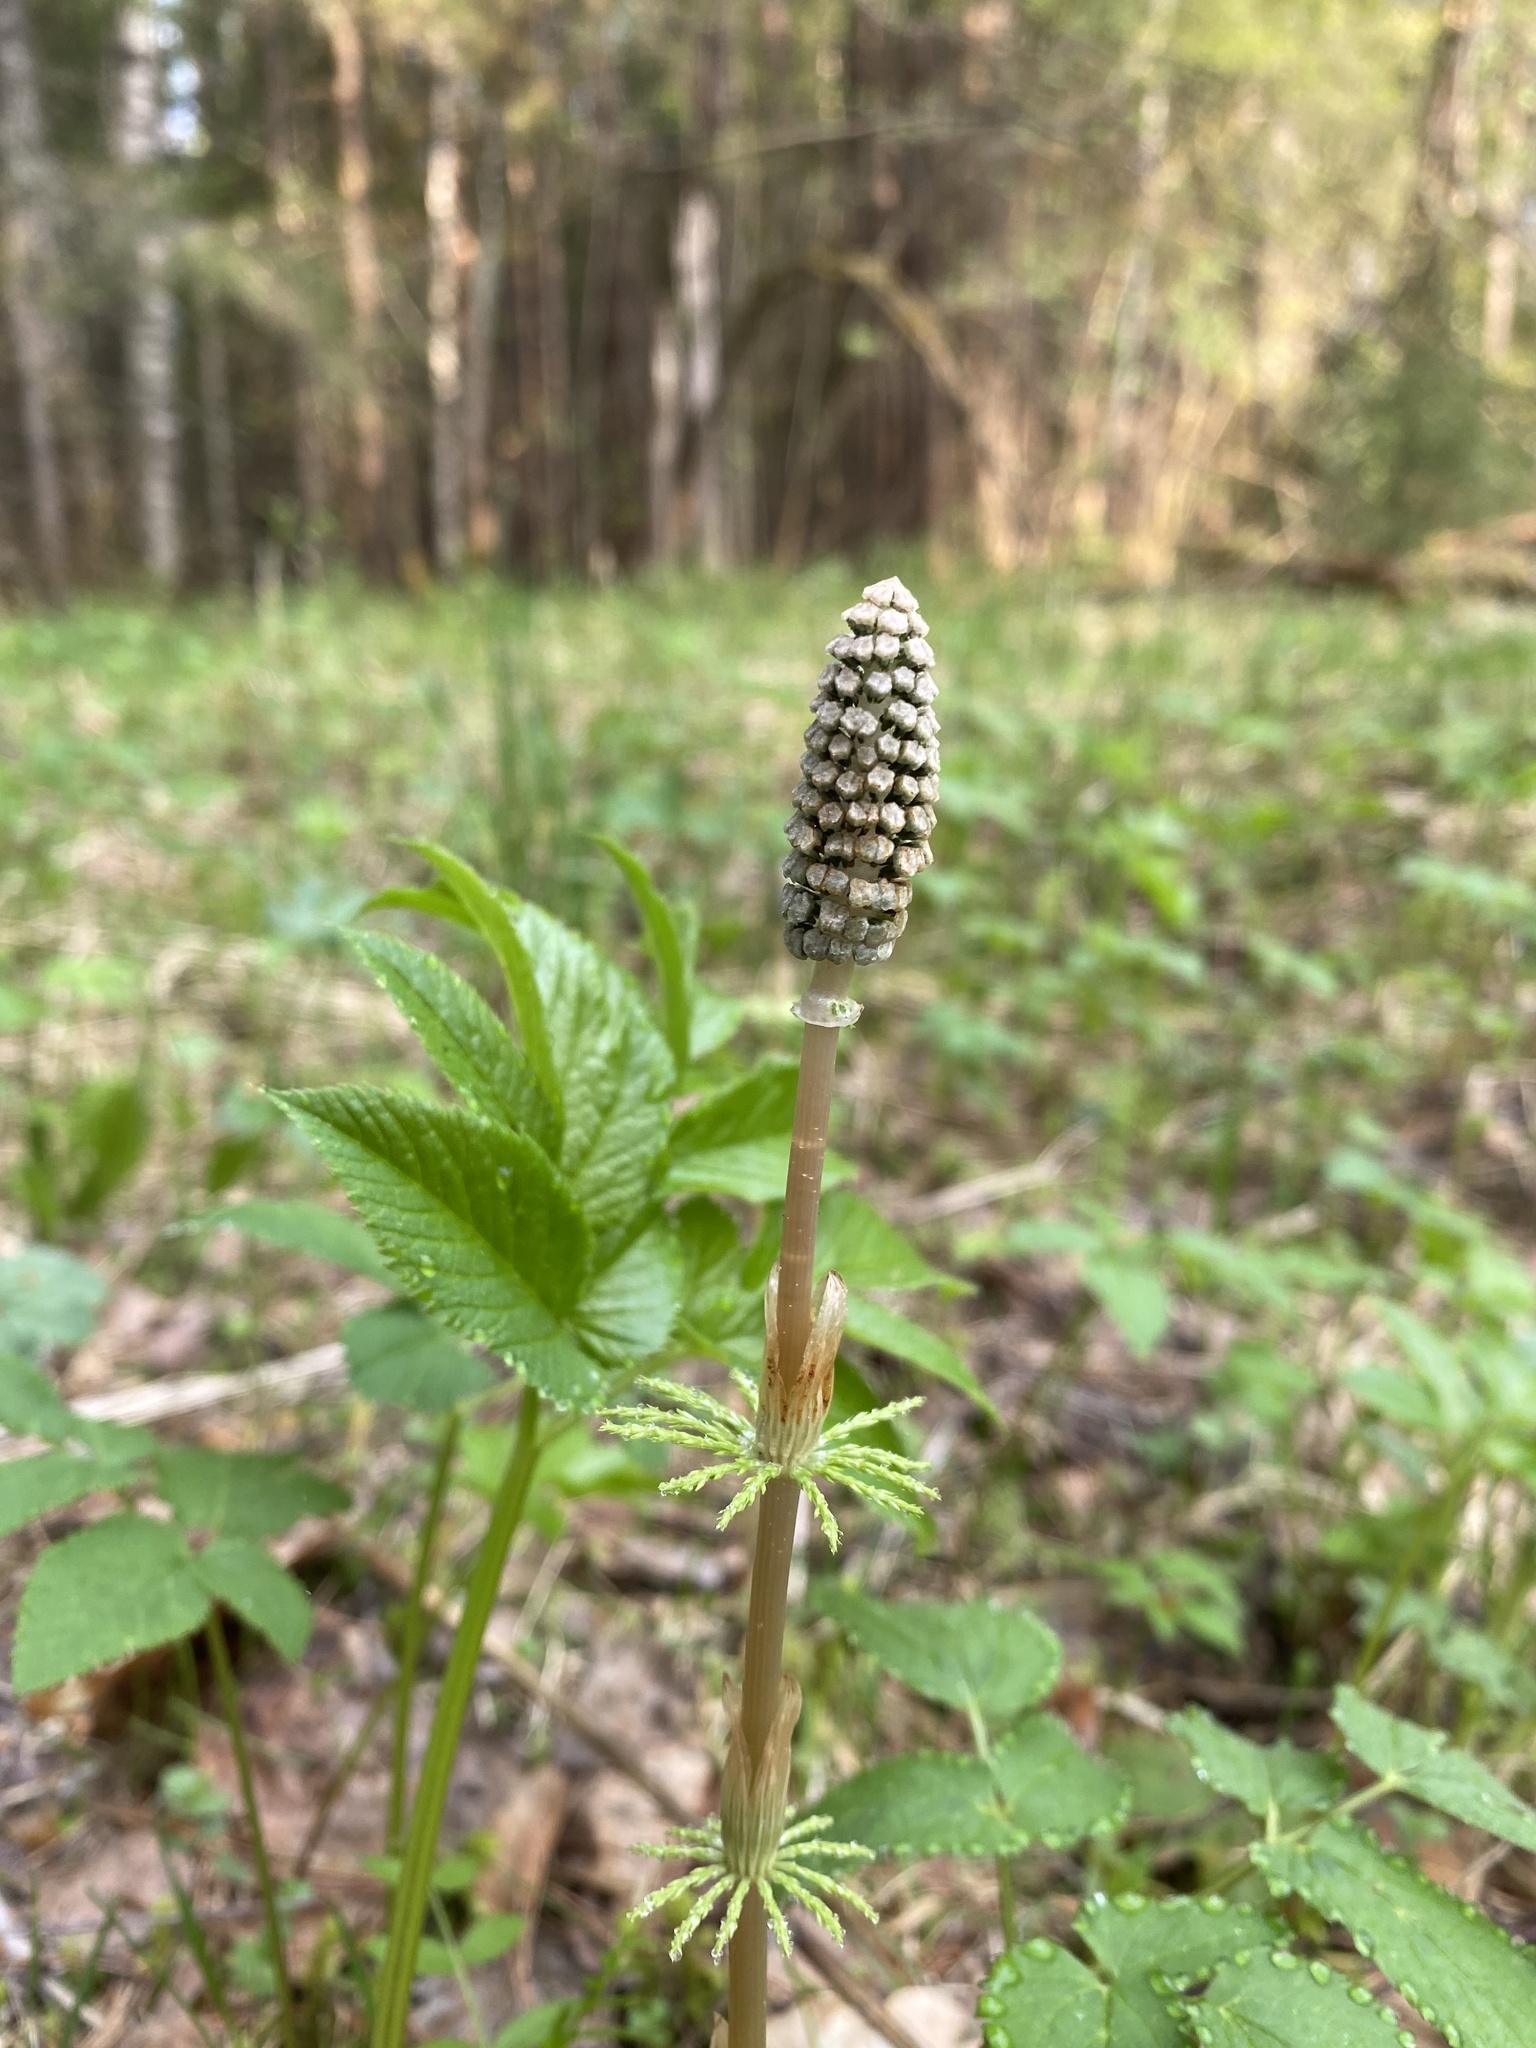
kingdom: Plantae
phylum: Tracheophyta
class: Polypodiopsida
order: Equisetales
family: Equisetaceae
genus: Equisetum
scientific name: Equisetum sylvaticum
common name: Wood horsetail
